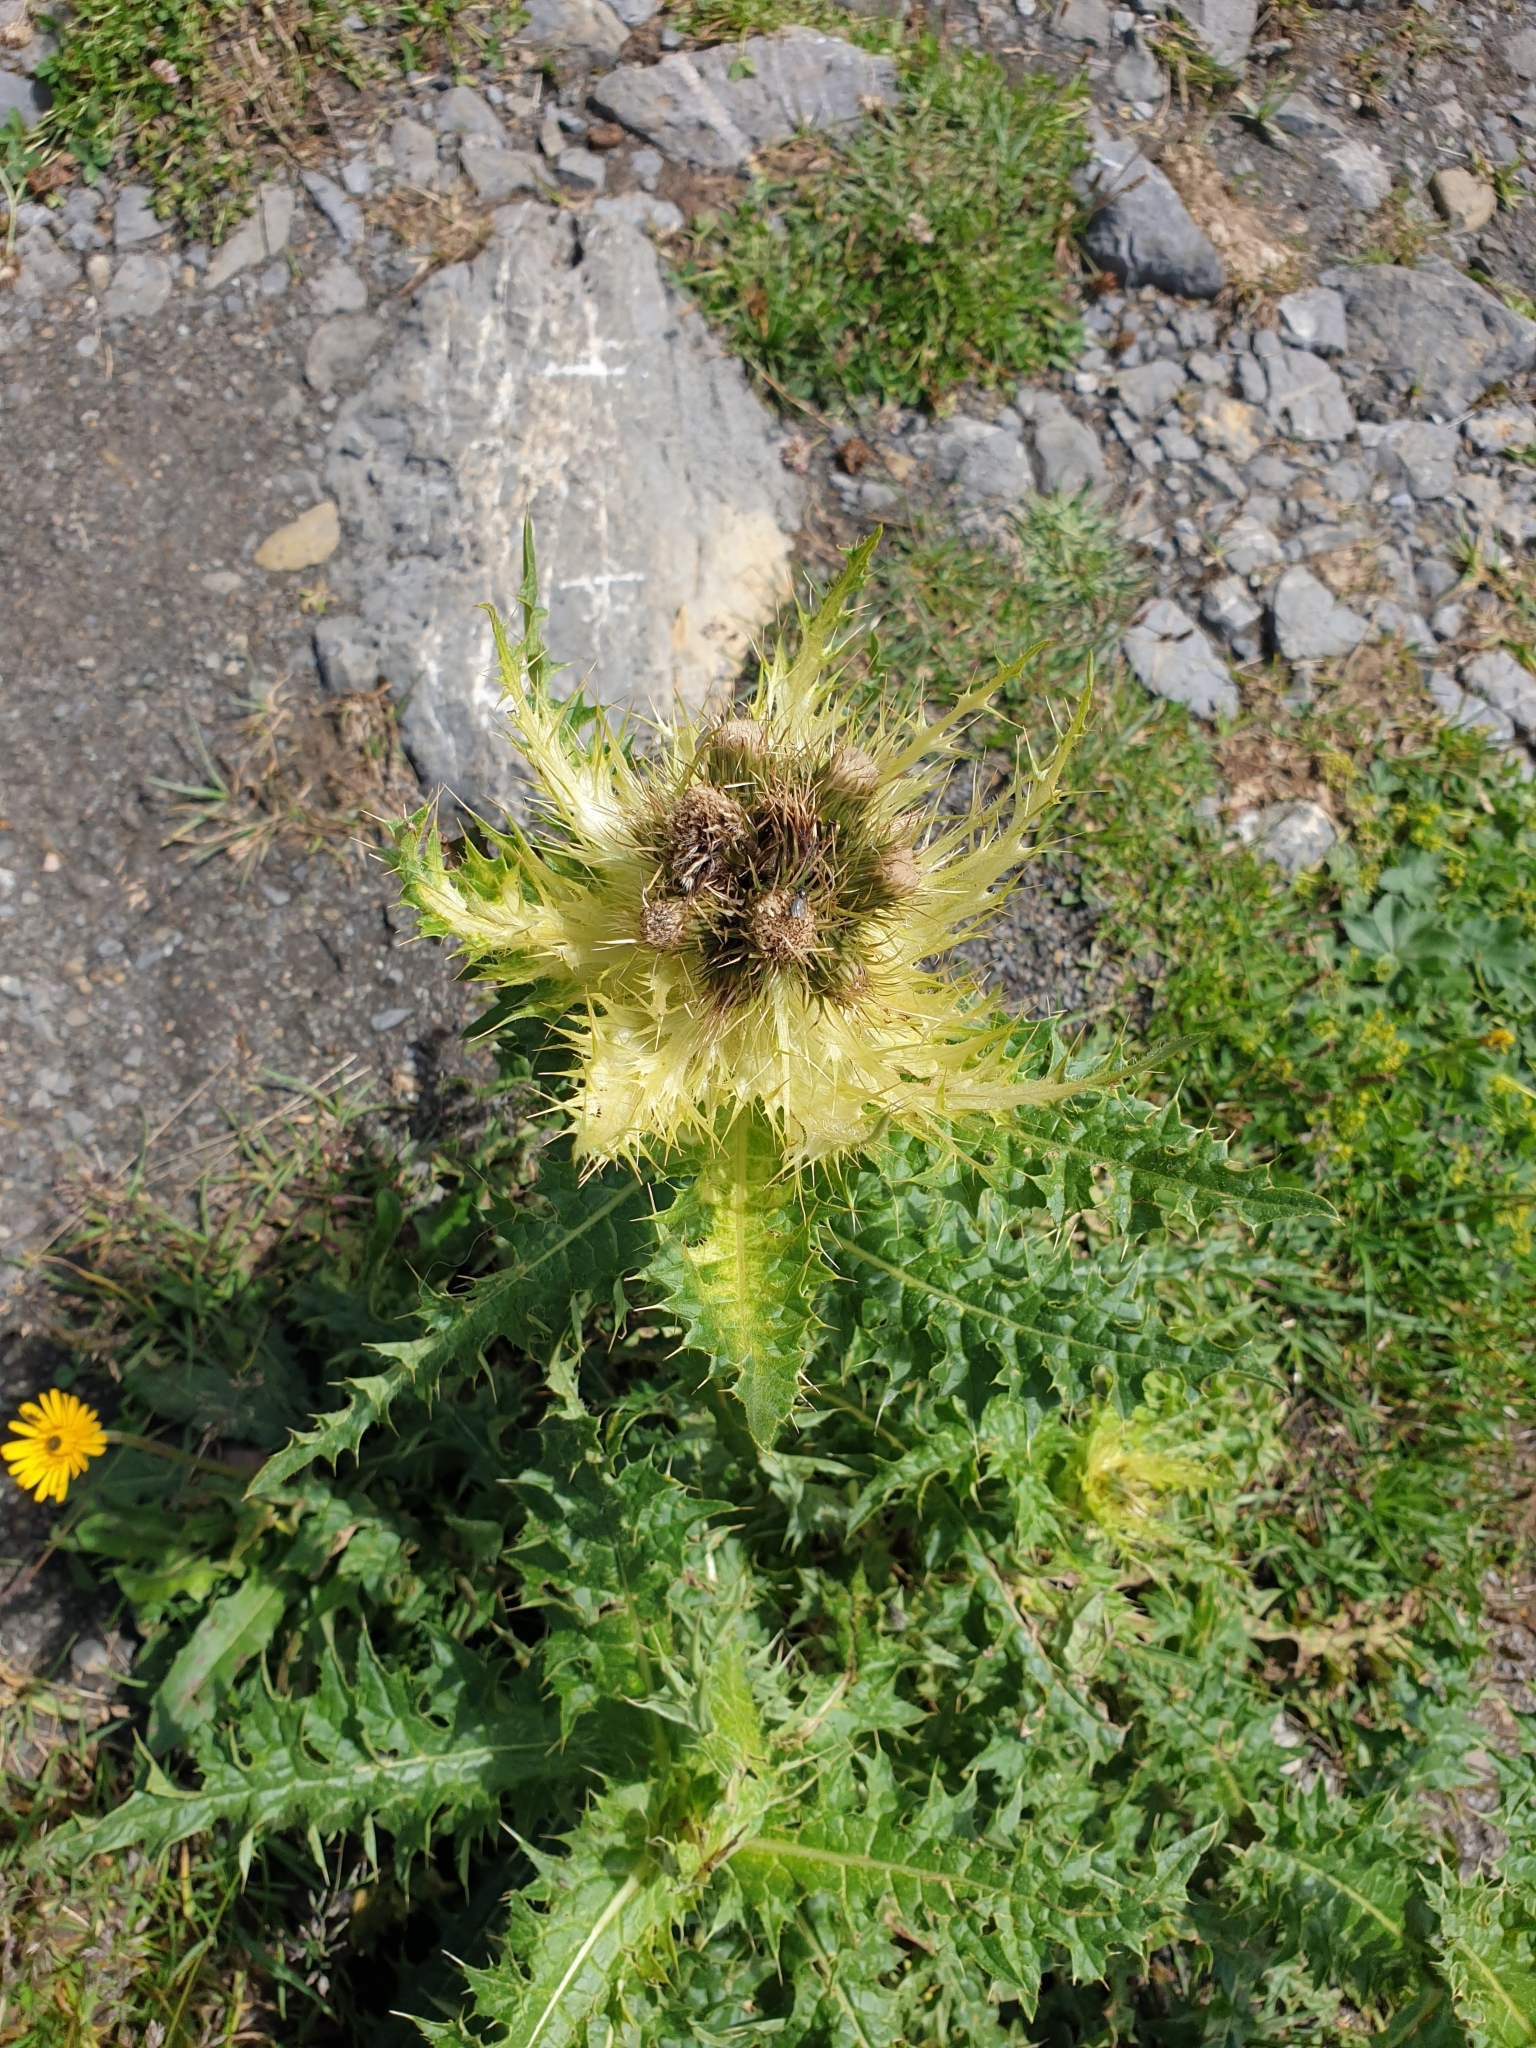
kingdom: Plantae
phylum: Tracheophyta
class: Magnoliopsida
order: Asterales
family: Asteraceae
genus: Cirsium
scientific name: Cirsium spinosissimum
